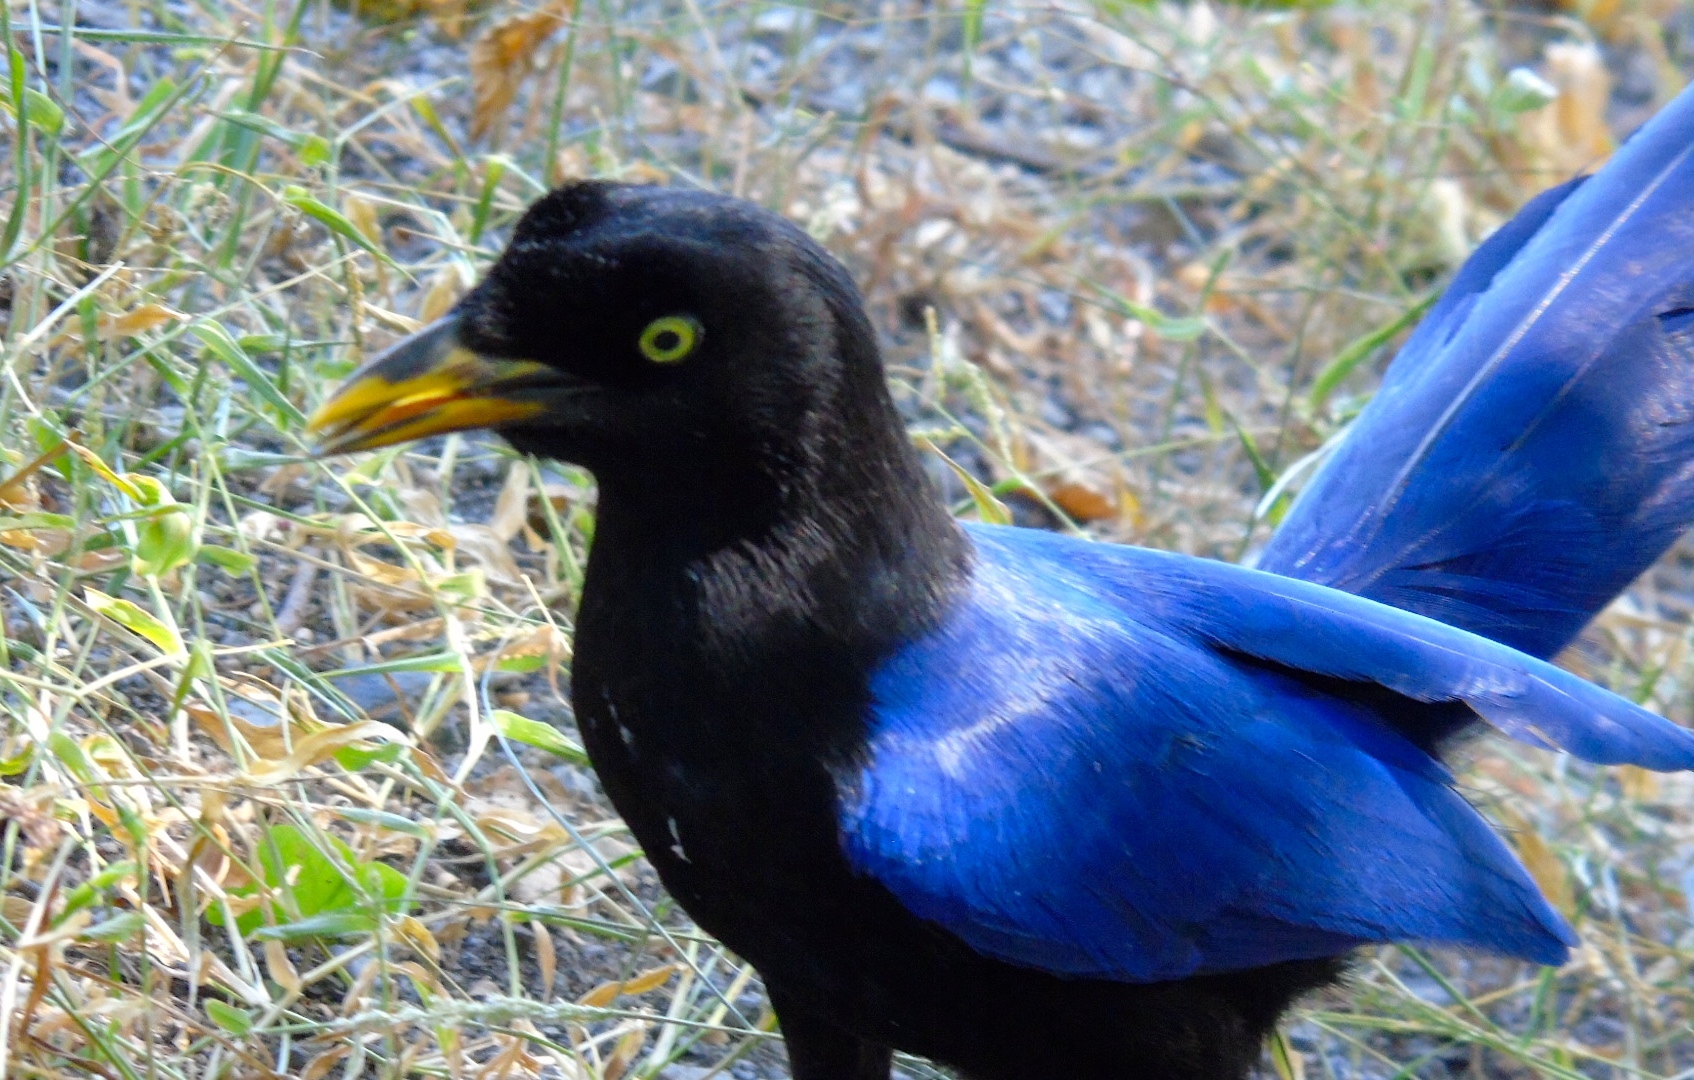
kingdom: Animalia
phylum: Chordata
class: Aves
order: Passeriformes
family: Corvidae
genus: Cyanocorax
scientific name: Cyanocorax beecheii
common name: Purplish-backed jay
